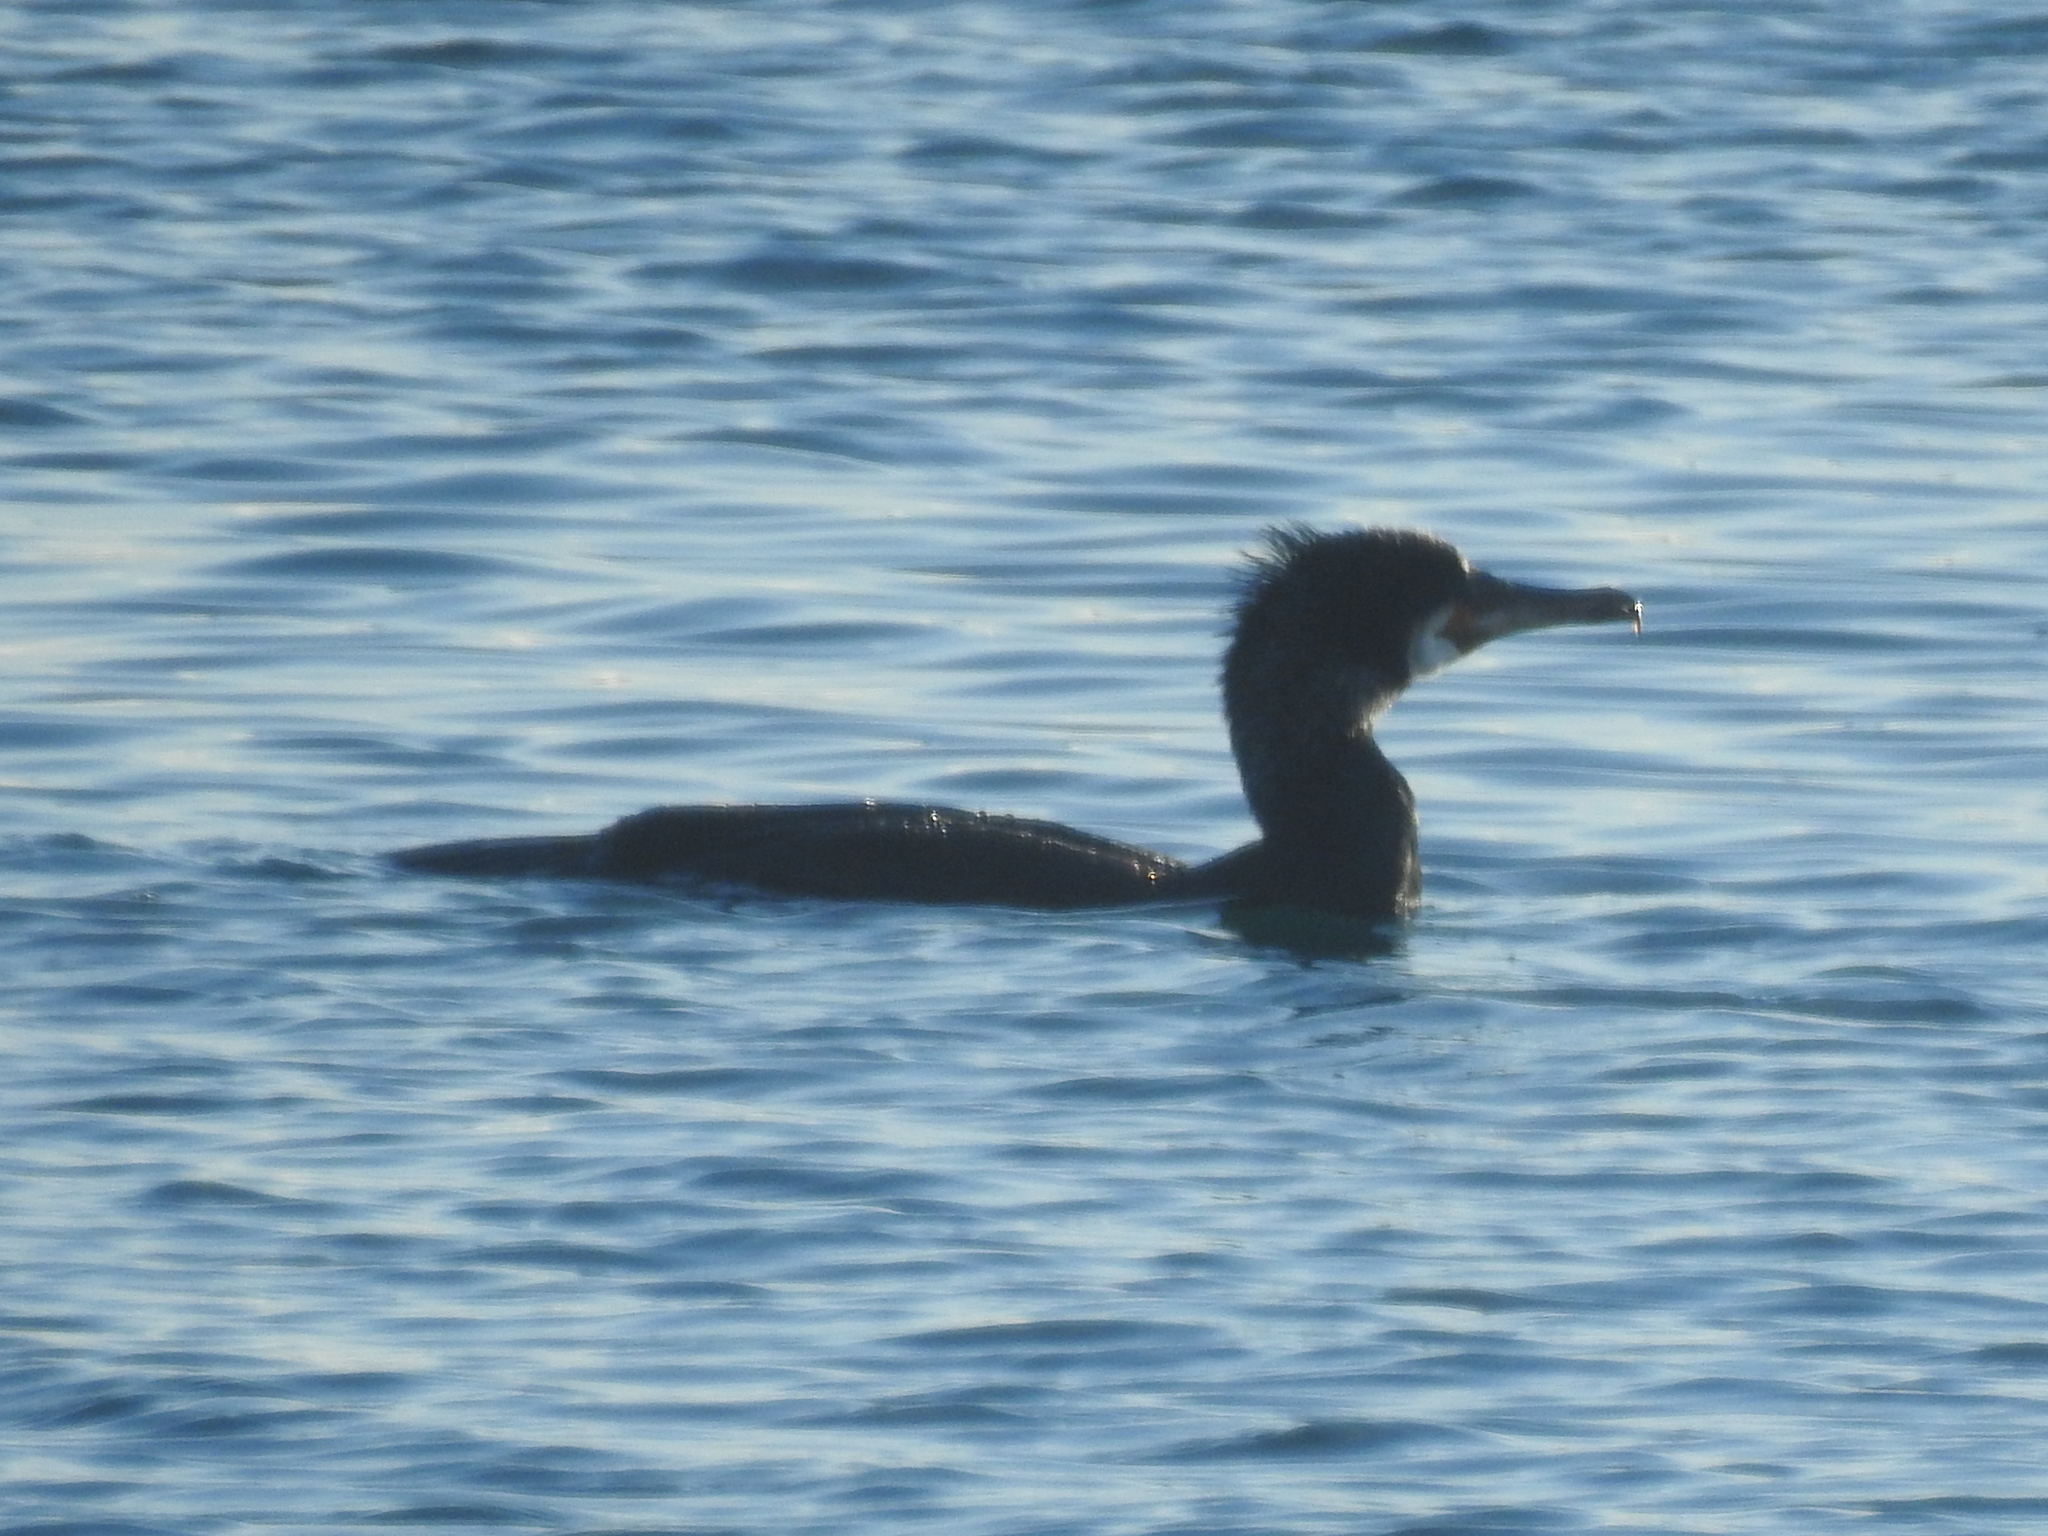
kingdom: Animalia
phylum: Chordata
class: Aves
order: Suliformes
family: Phalacrocoracidae
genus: Phalacrocorax
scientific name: Phalacrocorax carbo
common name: Great cormorant
